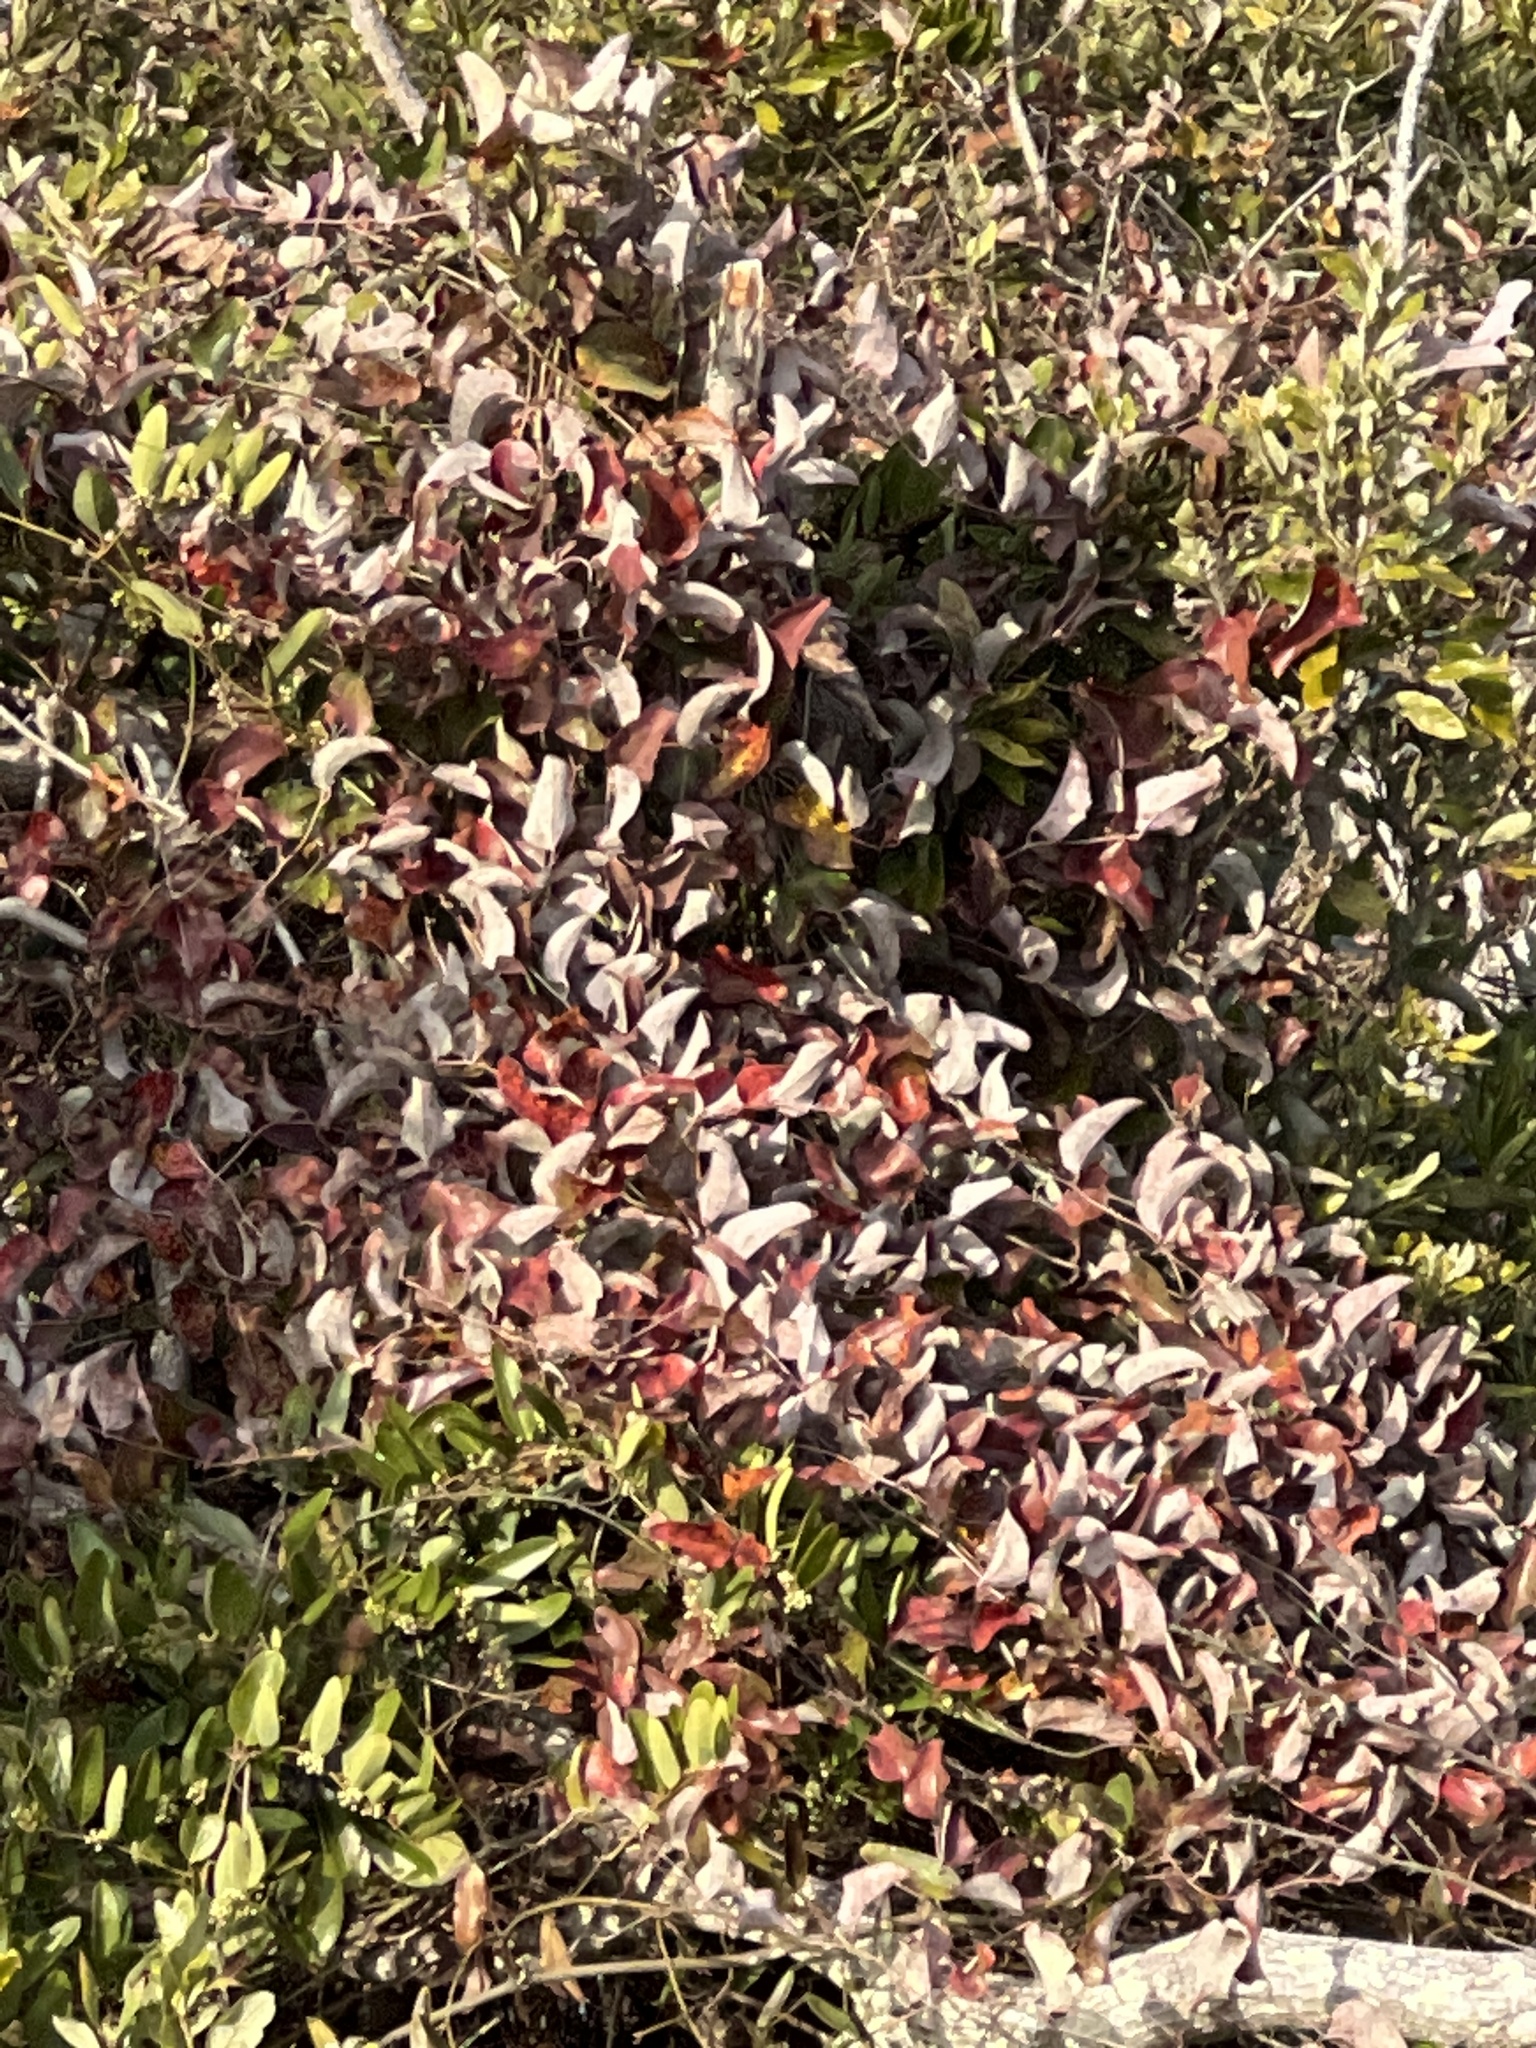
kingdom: Plantae
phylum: Tracheophyta
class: Liliopsida
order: Liliales
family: Smilacaceae
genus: Smilax
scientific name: Smilax glauca
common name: Cat greenbrier
